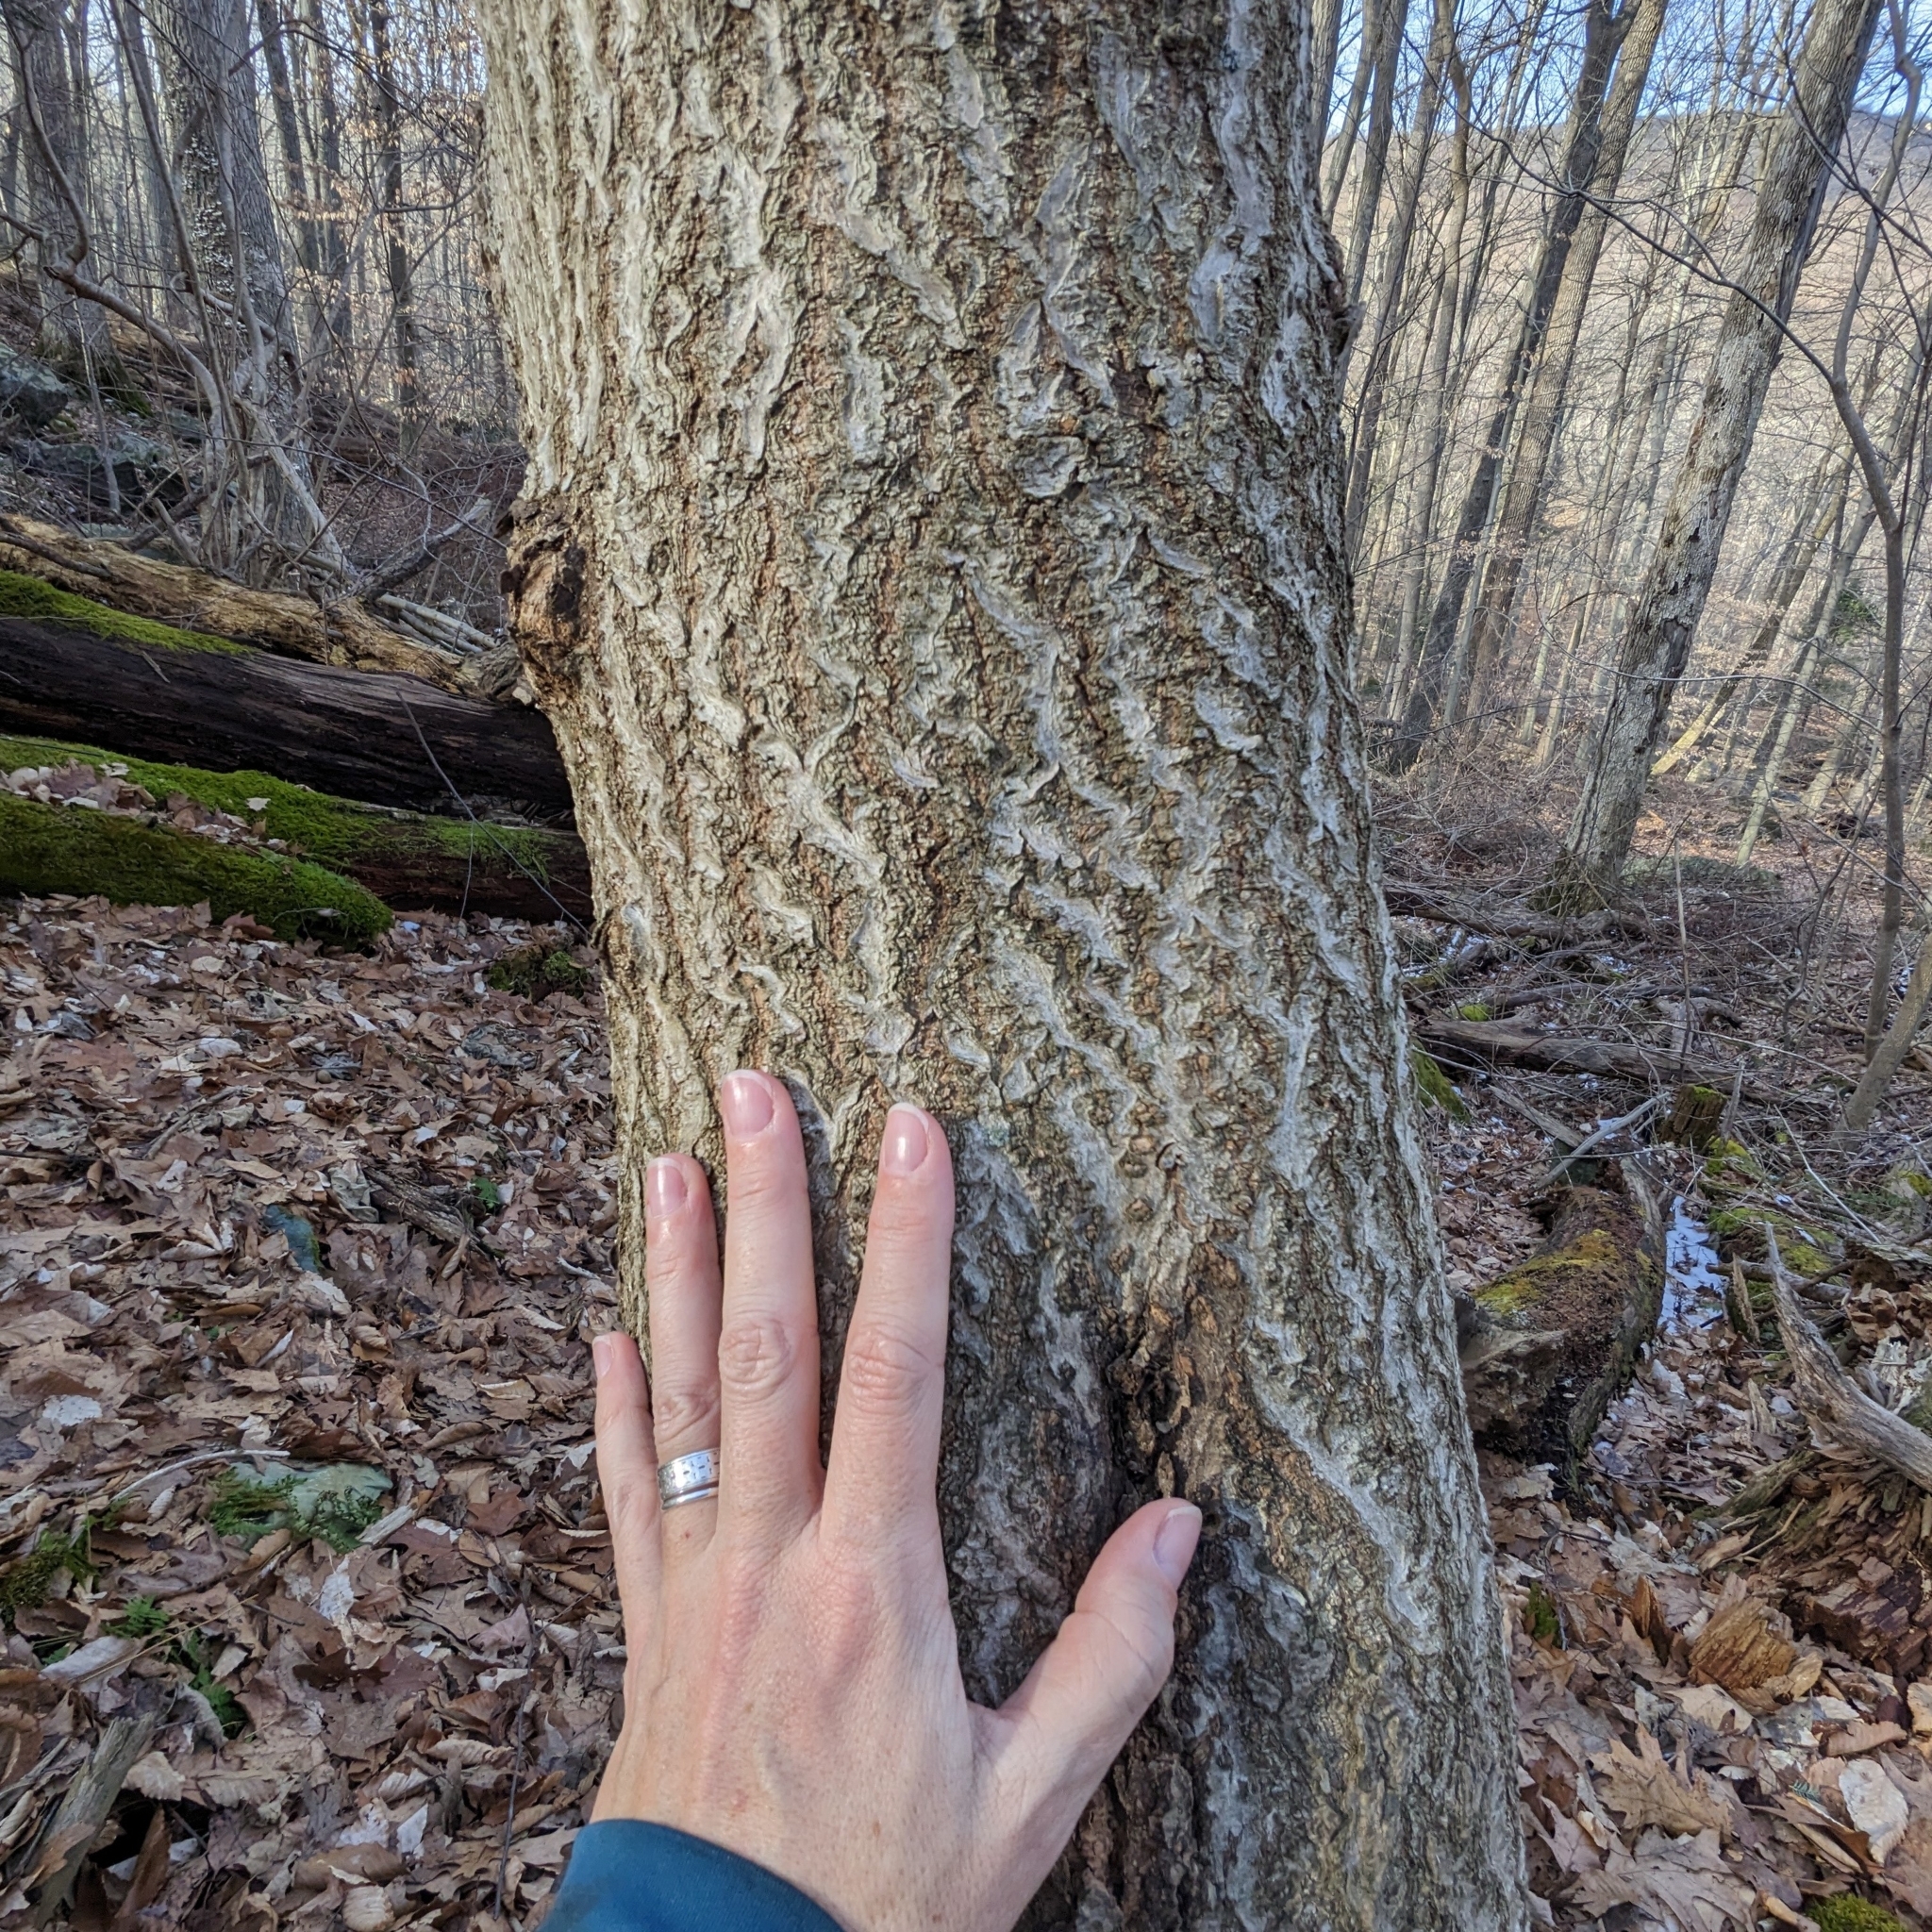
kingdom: Plantae
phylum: Tracheophyta
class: Magnoliopsida
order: Lamiales
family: Paulowniaceae
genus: Paulownia
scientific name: Paulownia tomentosa
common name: Foxglove-tree
